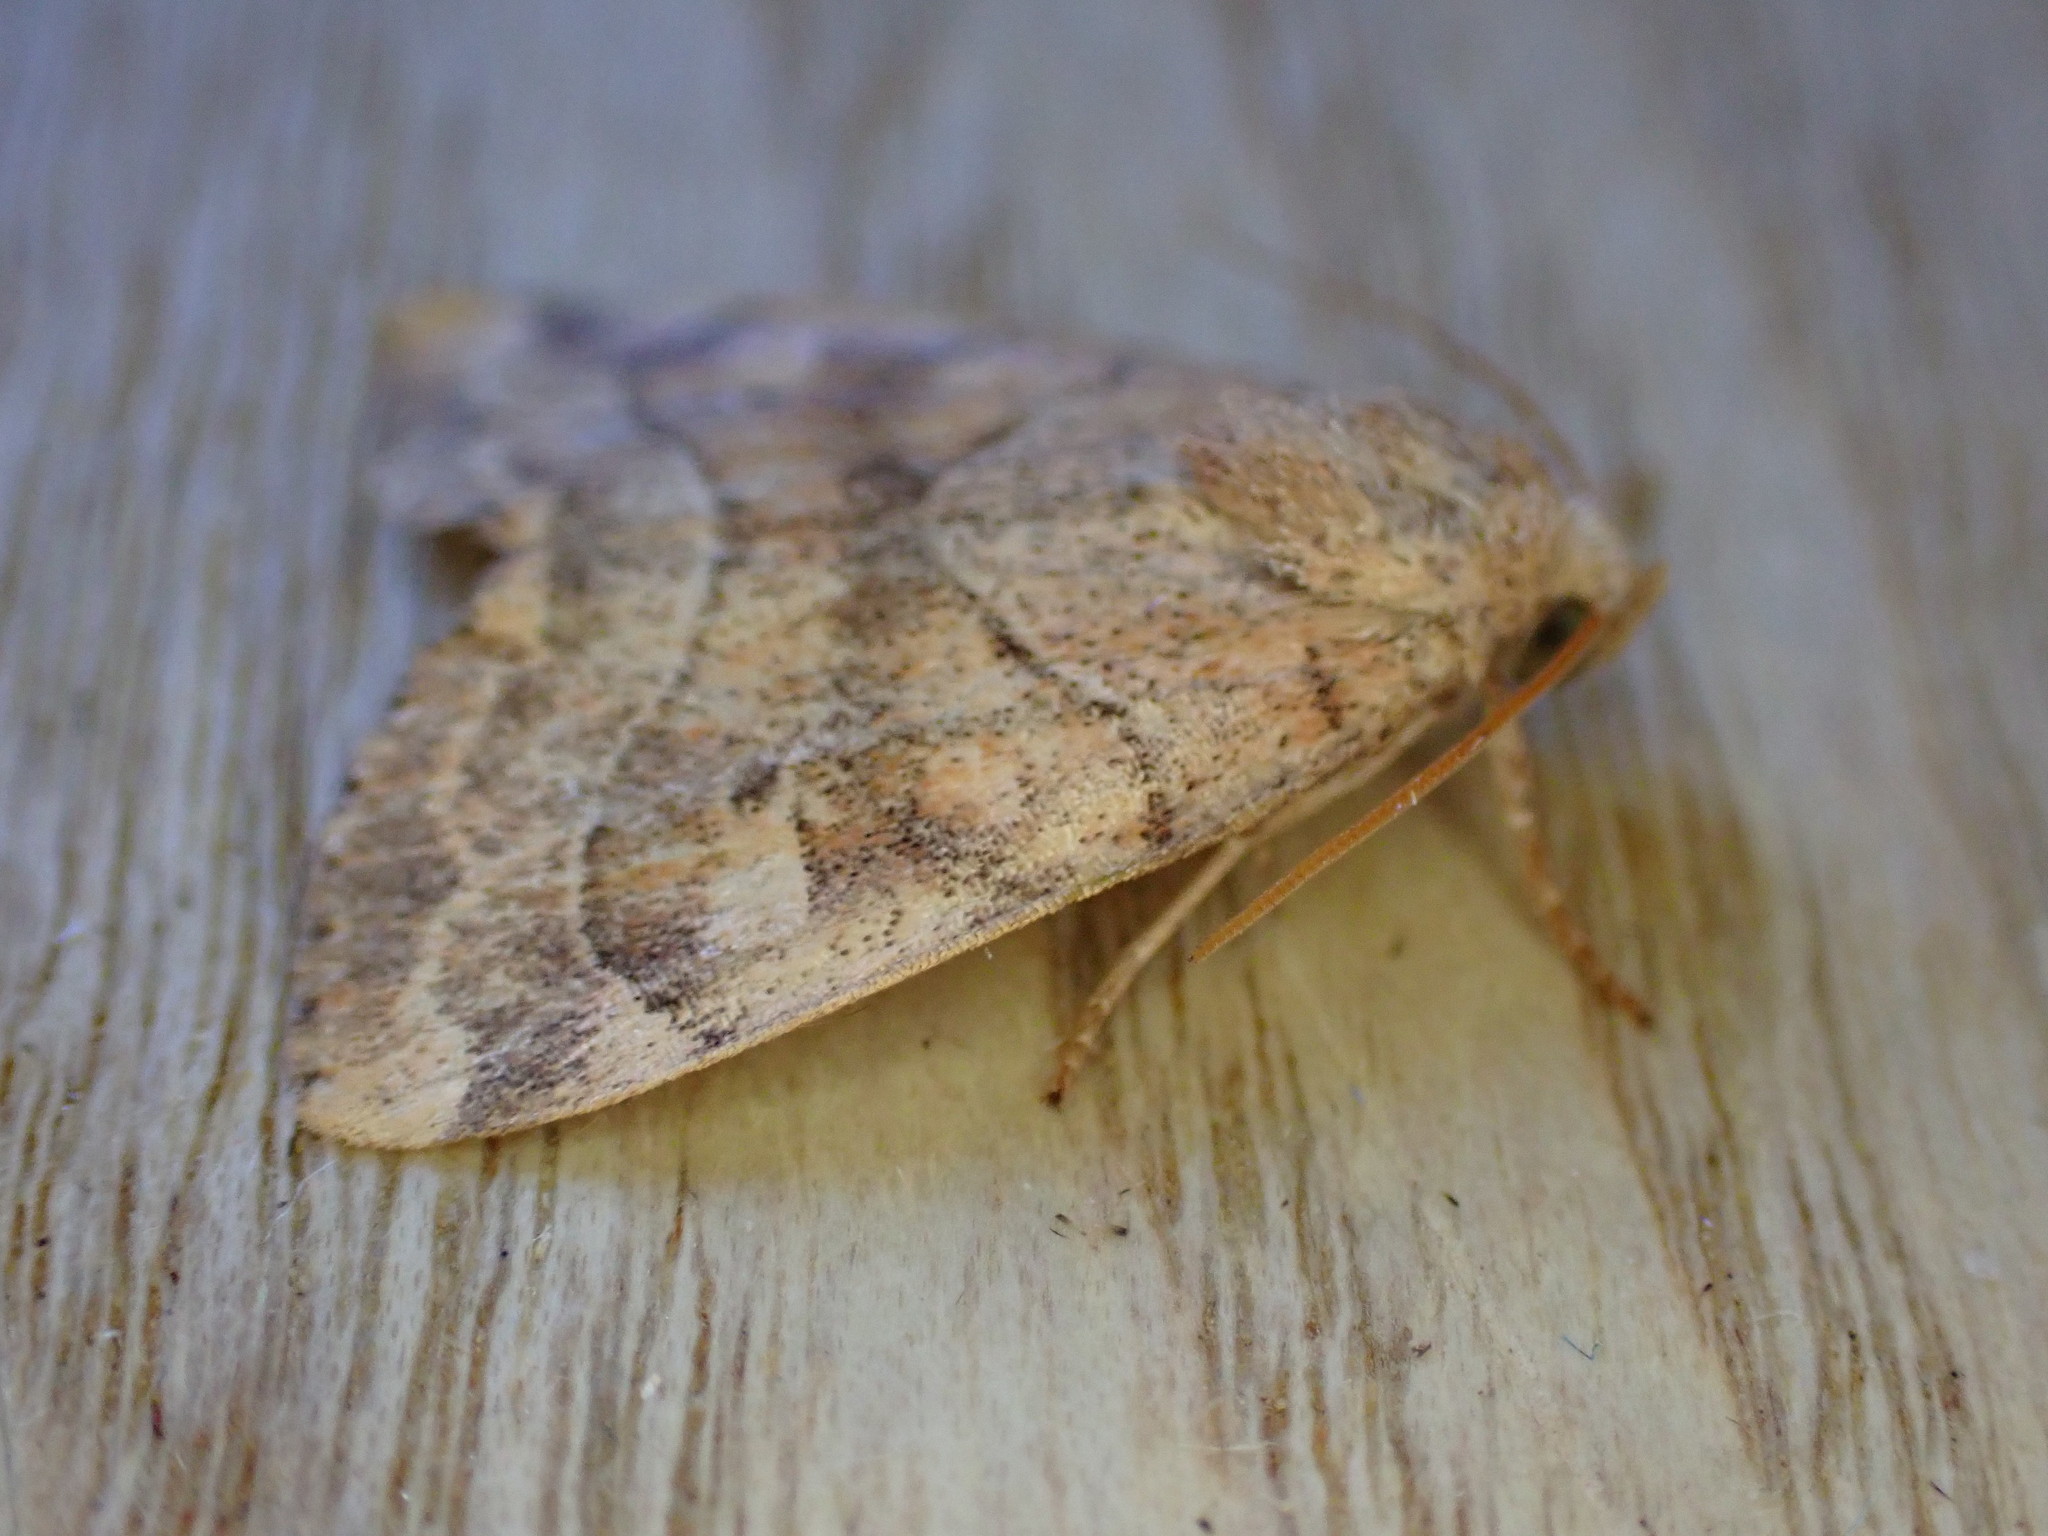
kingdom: Animalia
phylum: Arthropoda
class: Insecta
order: Lepidoptera
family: Noctuidae
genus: Cosmia
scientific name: Cosmia trapezina
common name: Dun-bar
